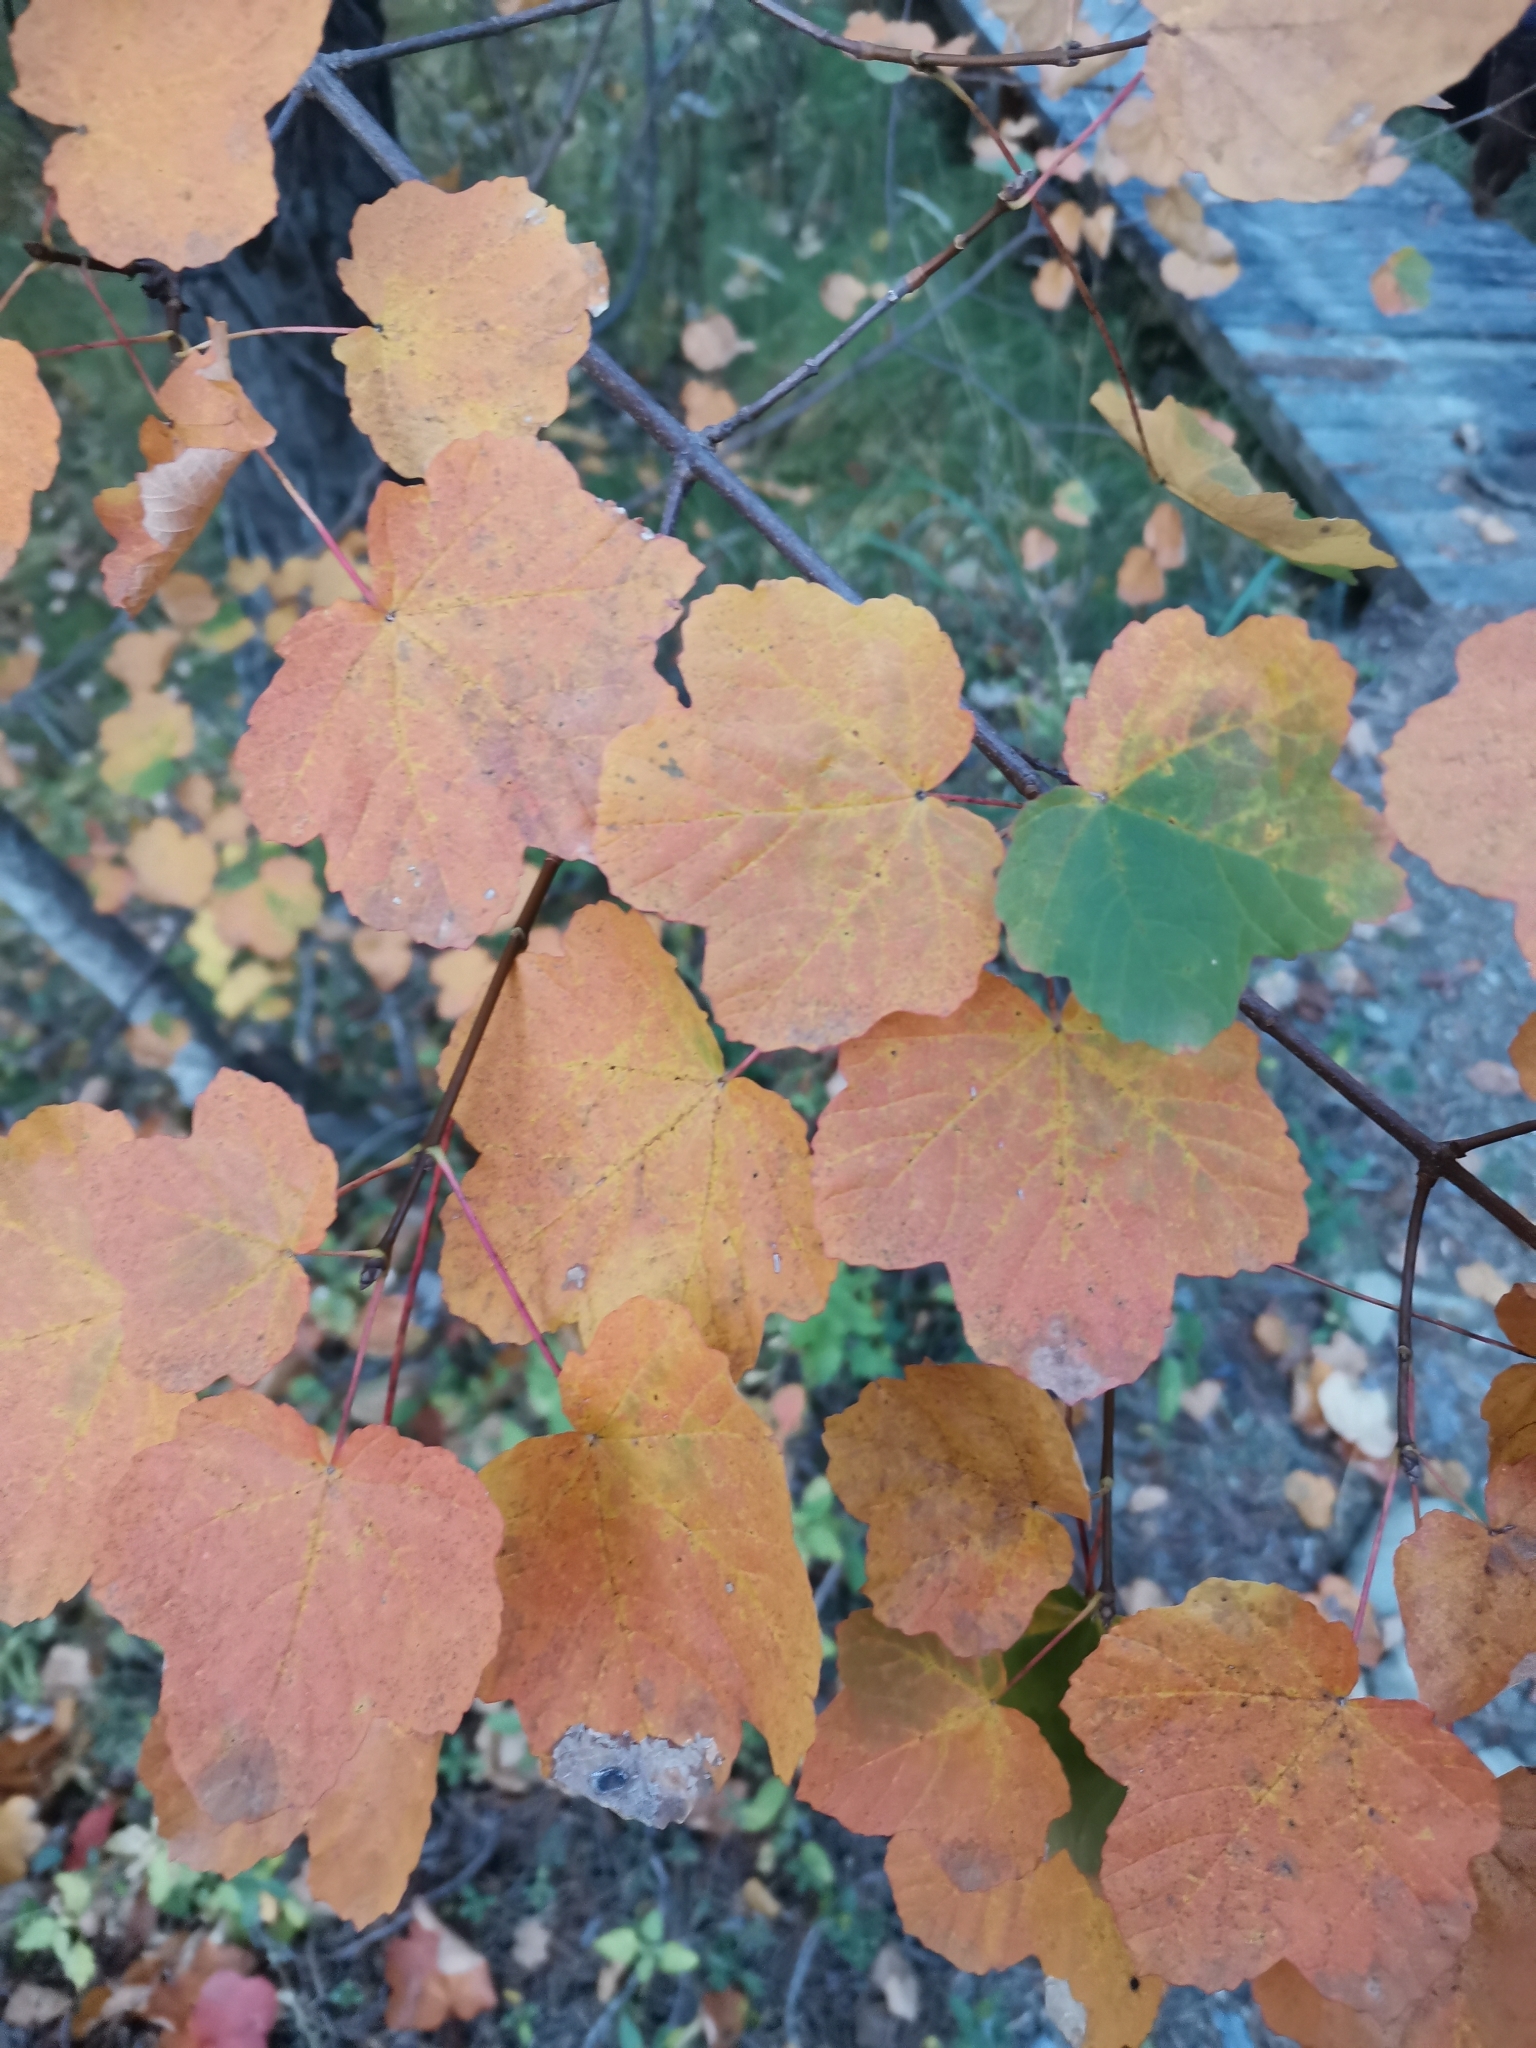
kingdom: Plantae
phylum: Tracheophyta
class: Magnoliopsida
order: Sapindales
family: Sapindaceae
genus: Acer
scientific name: Acer opalus
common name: Italian maple
